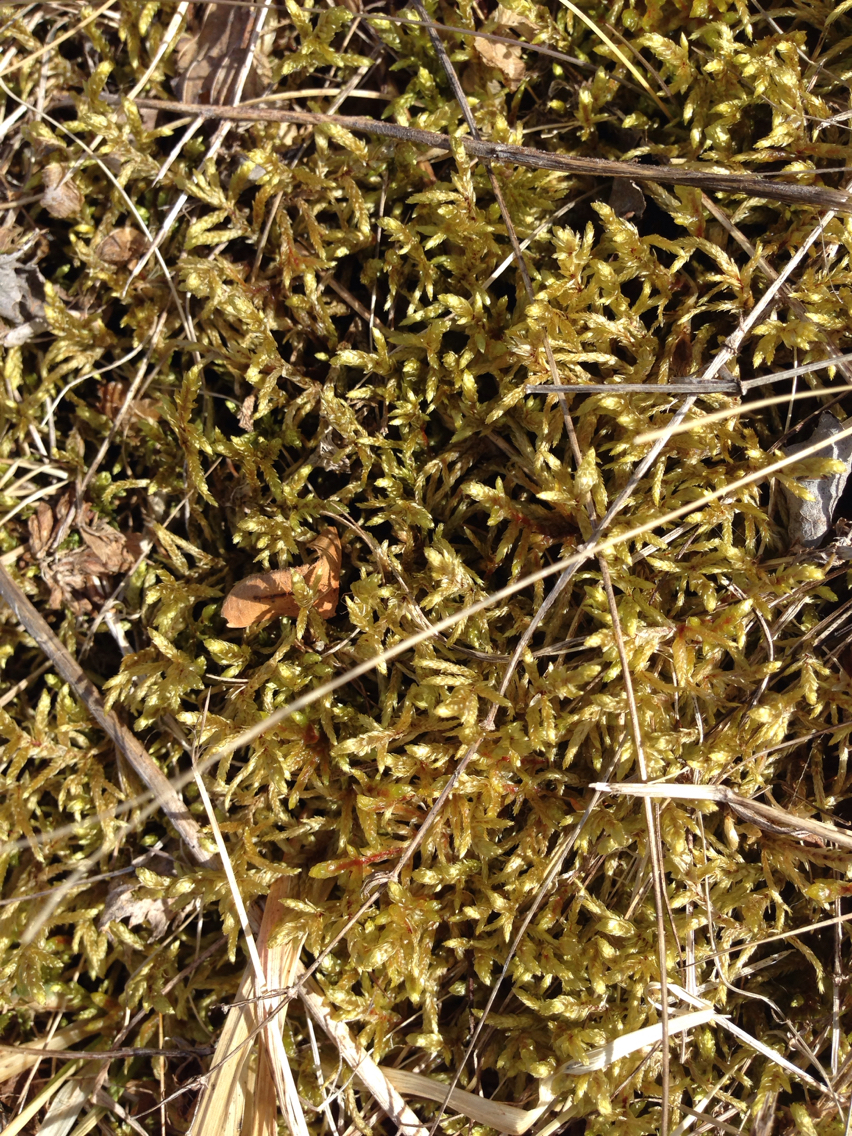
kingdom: Plantae
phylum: Bryophyta
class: Bryopsida
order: Hypnales
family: Hylocomiaceae
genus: Pleurozium
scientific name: Pleurozium schreberi
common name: Red-stemmed feather moss
